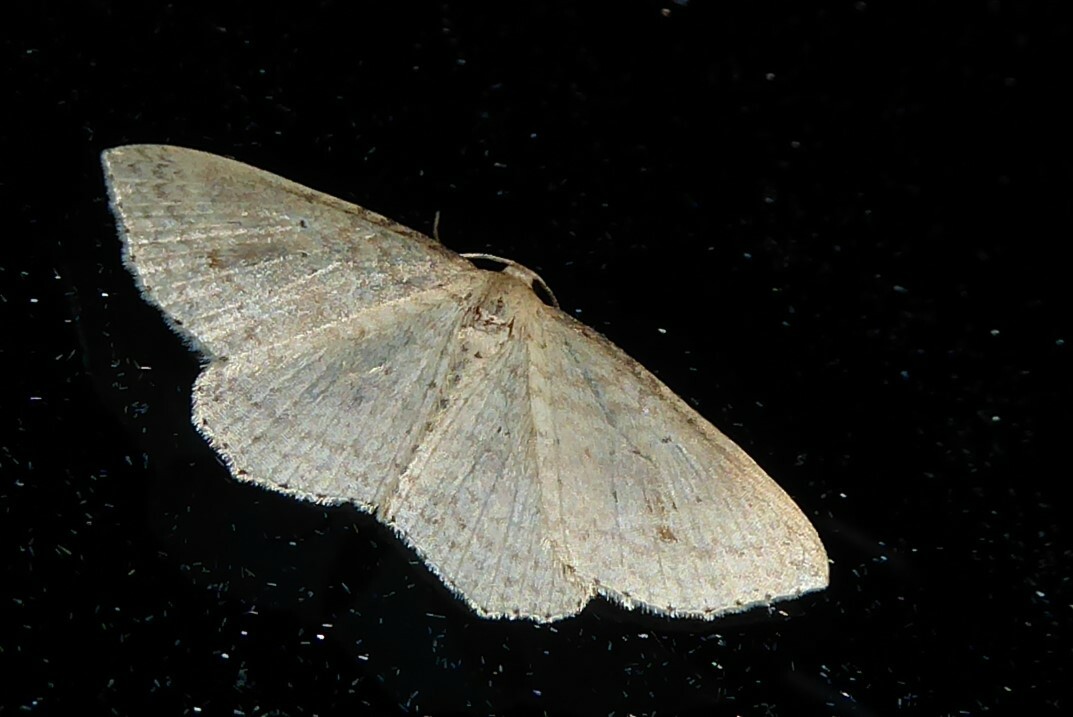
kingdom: Animalia
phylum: Arthropoda
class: Insecta
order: Lepidoptera
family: Geometridae
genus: Epicyme
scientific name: Epicyme rubropunctaria
